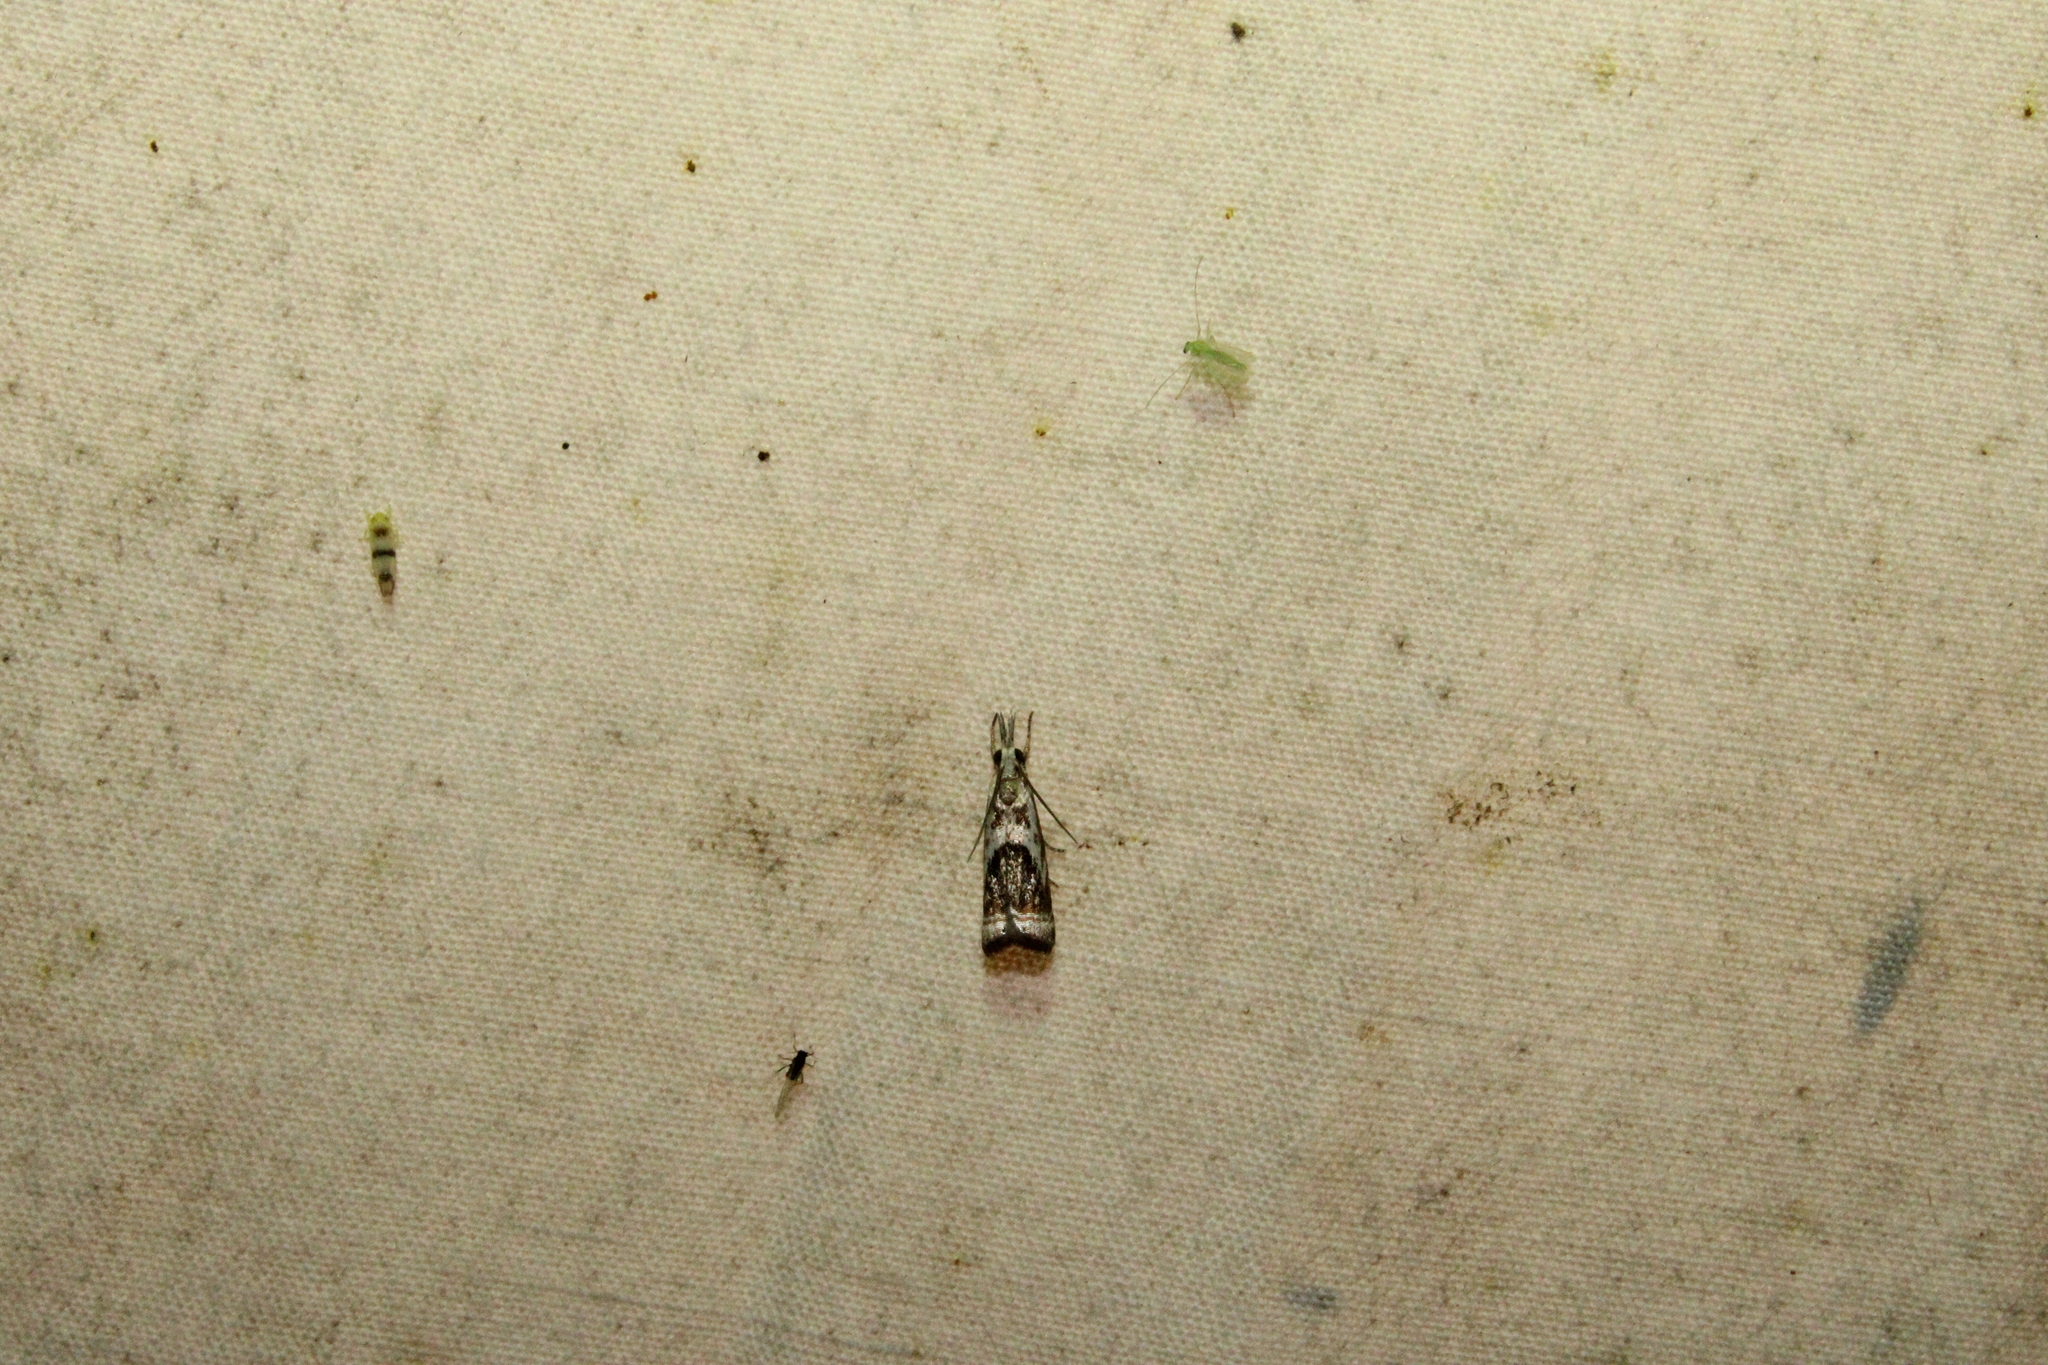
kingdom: Animalia
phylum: Arthropoda
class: Insecta
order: Lepidoptera
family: Crambidae
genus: Microcrambus
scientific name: Microcrambus elegans
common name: Elegant grass-veneer
